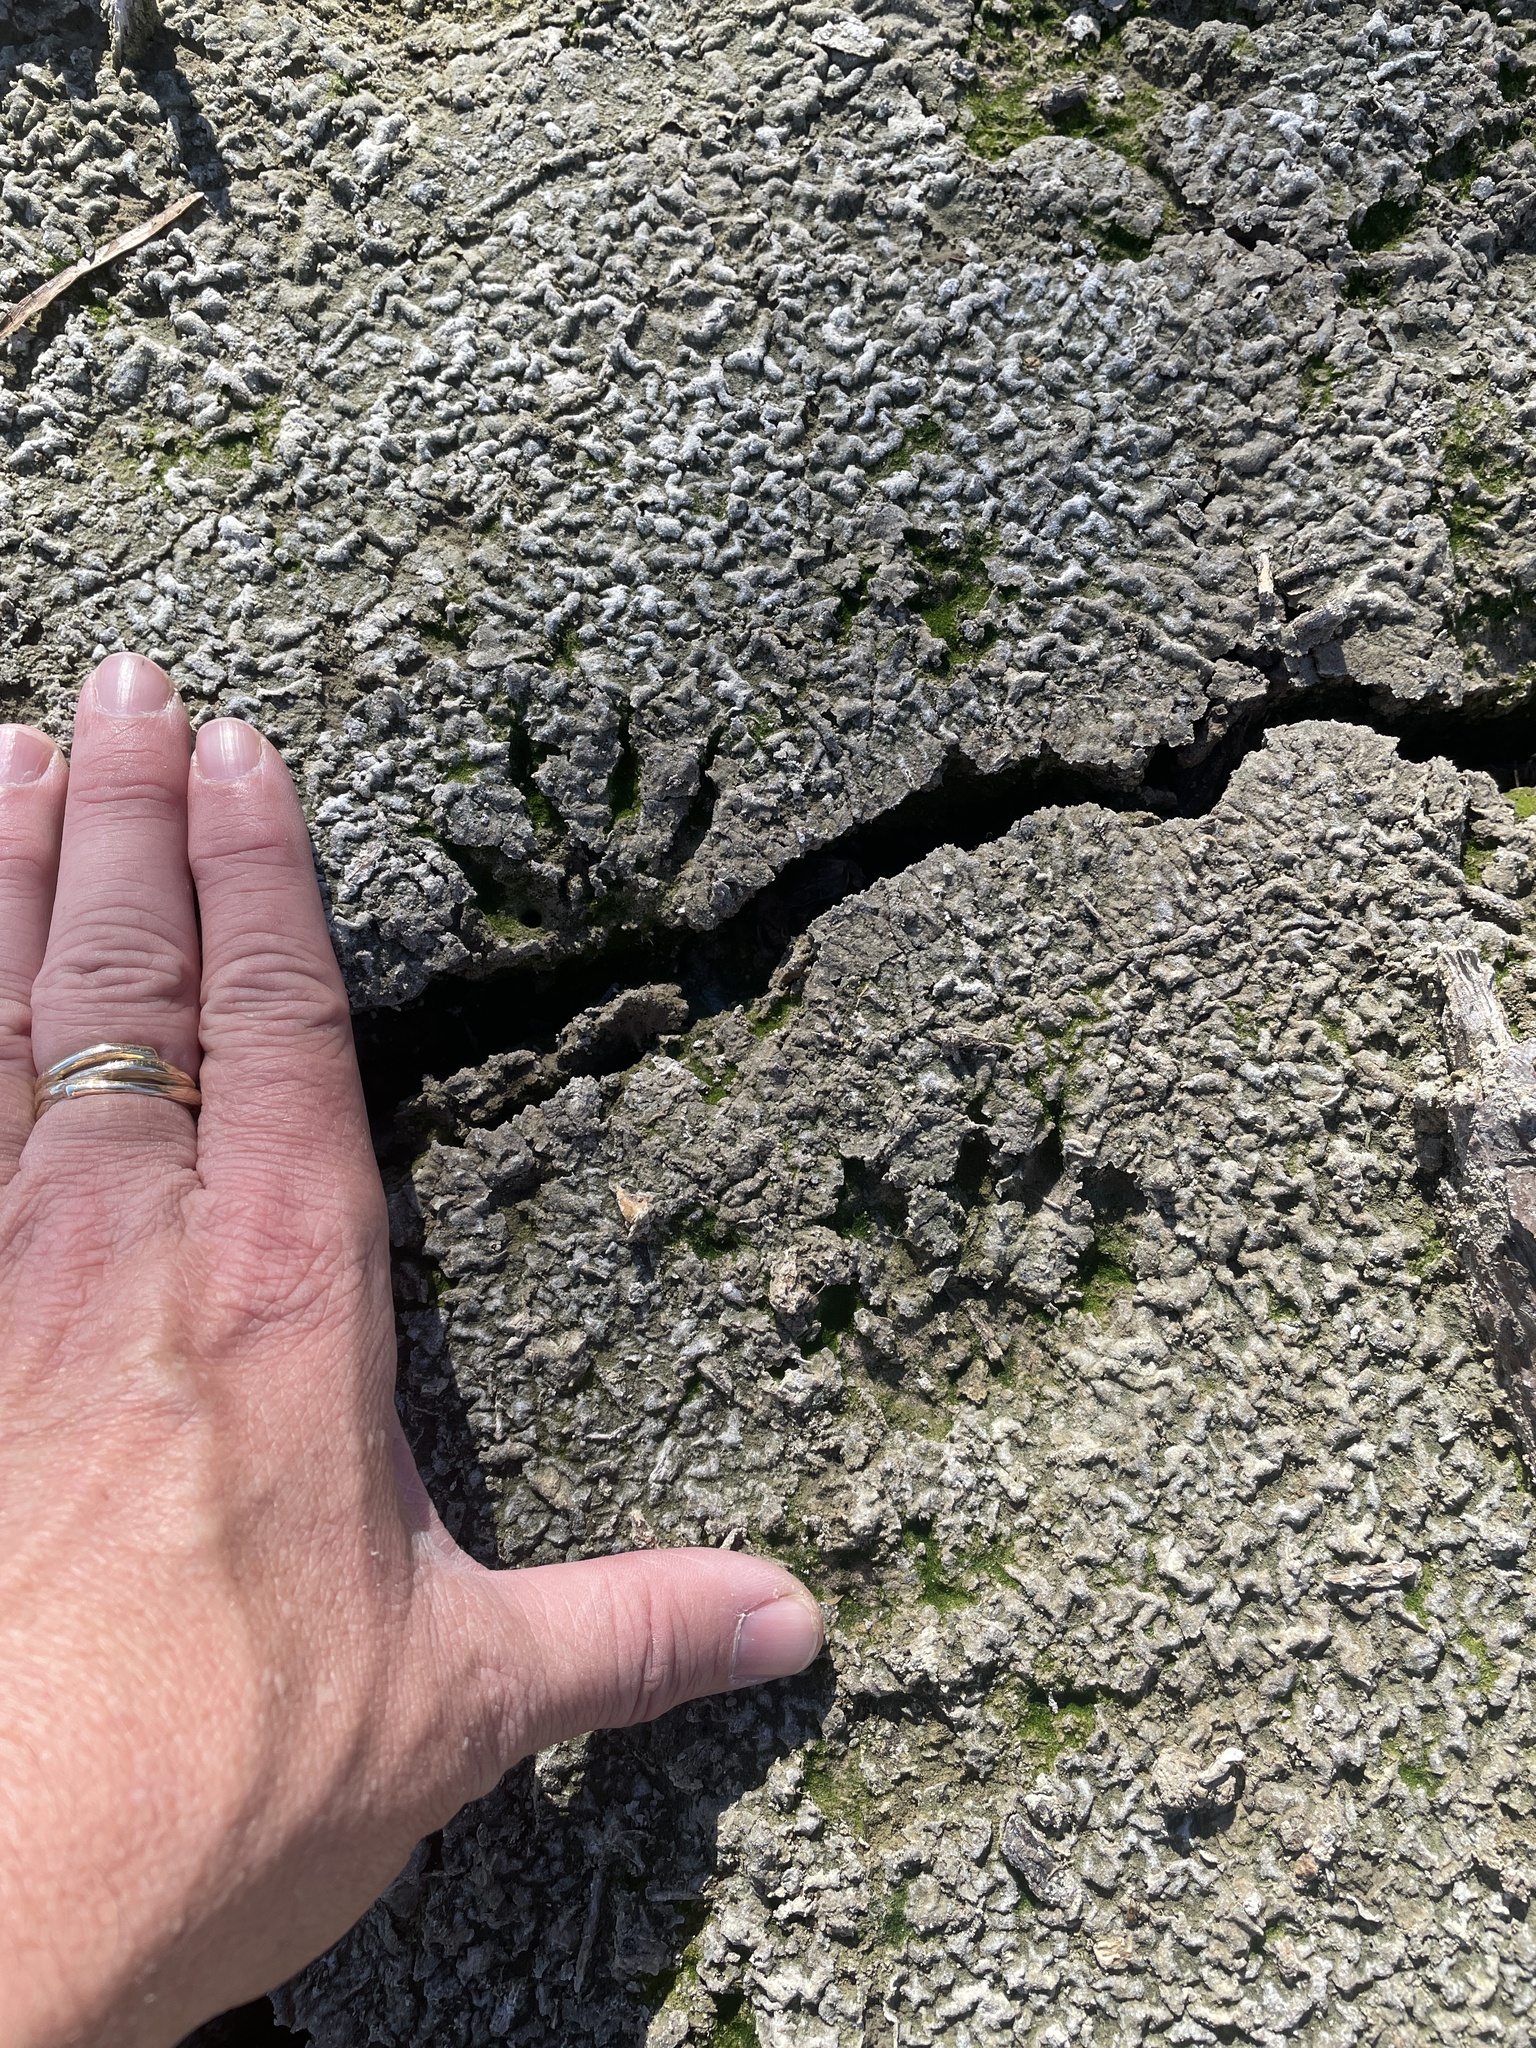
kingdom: Animalia
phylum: Chordata
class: Mammalia
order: Carnivora
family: Procyonidae
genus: Procyon
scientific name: Procyon lotor
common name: Raccoon
